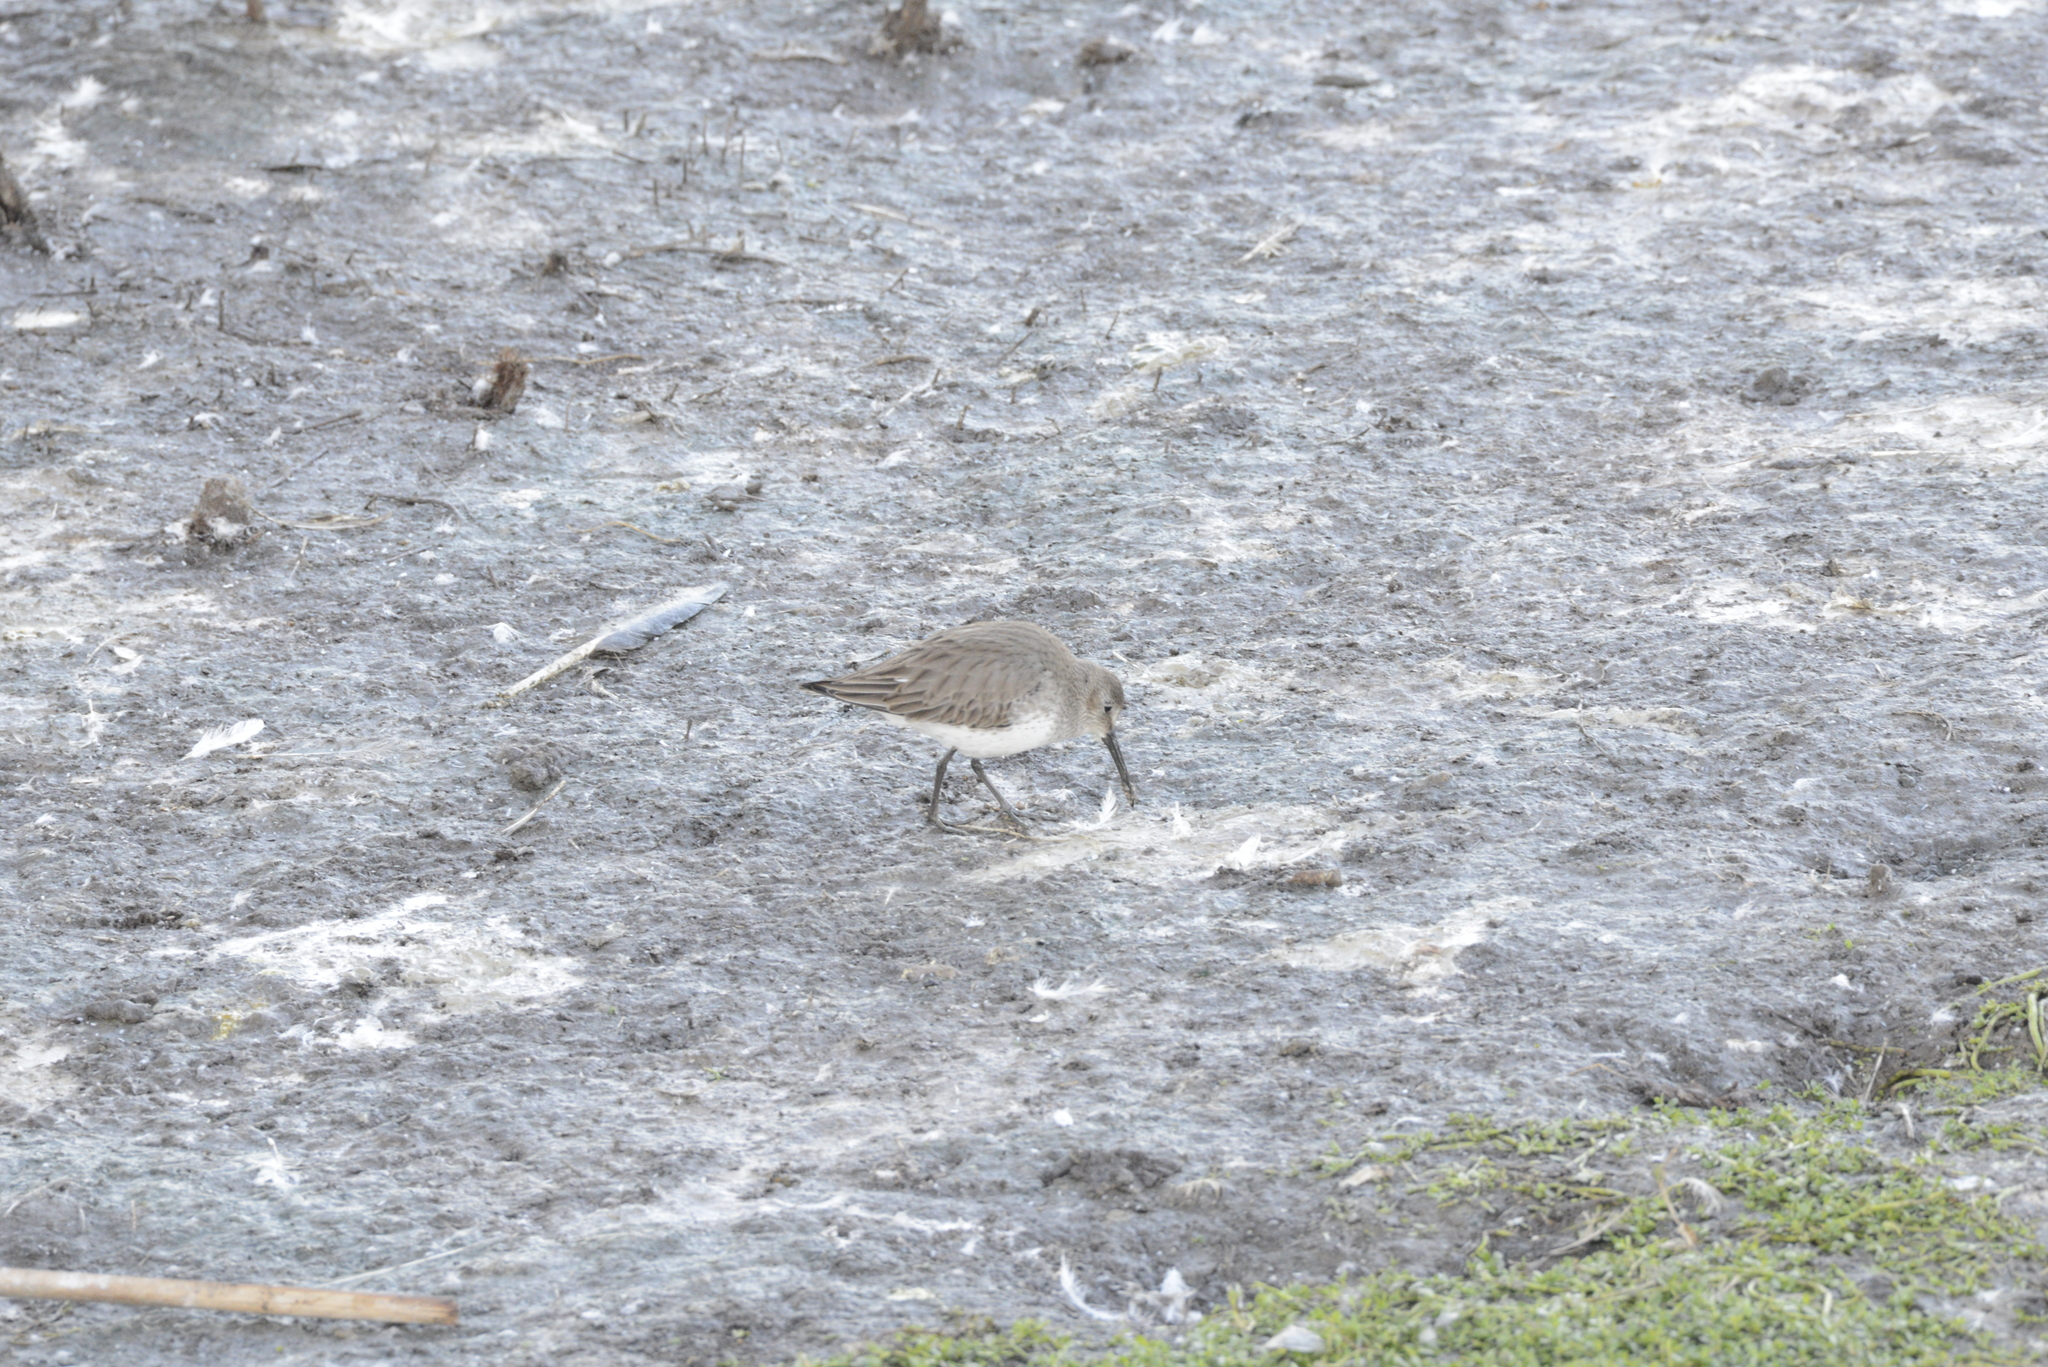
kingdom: Animalia
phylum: Chordata
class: Aves
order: Charadriiformes
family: Scolopacidae
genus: Calidris
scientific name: Calidris alpina
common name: Dunlin
